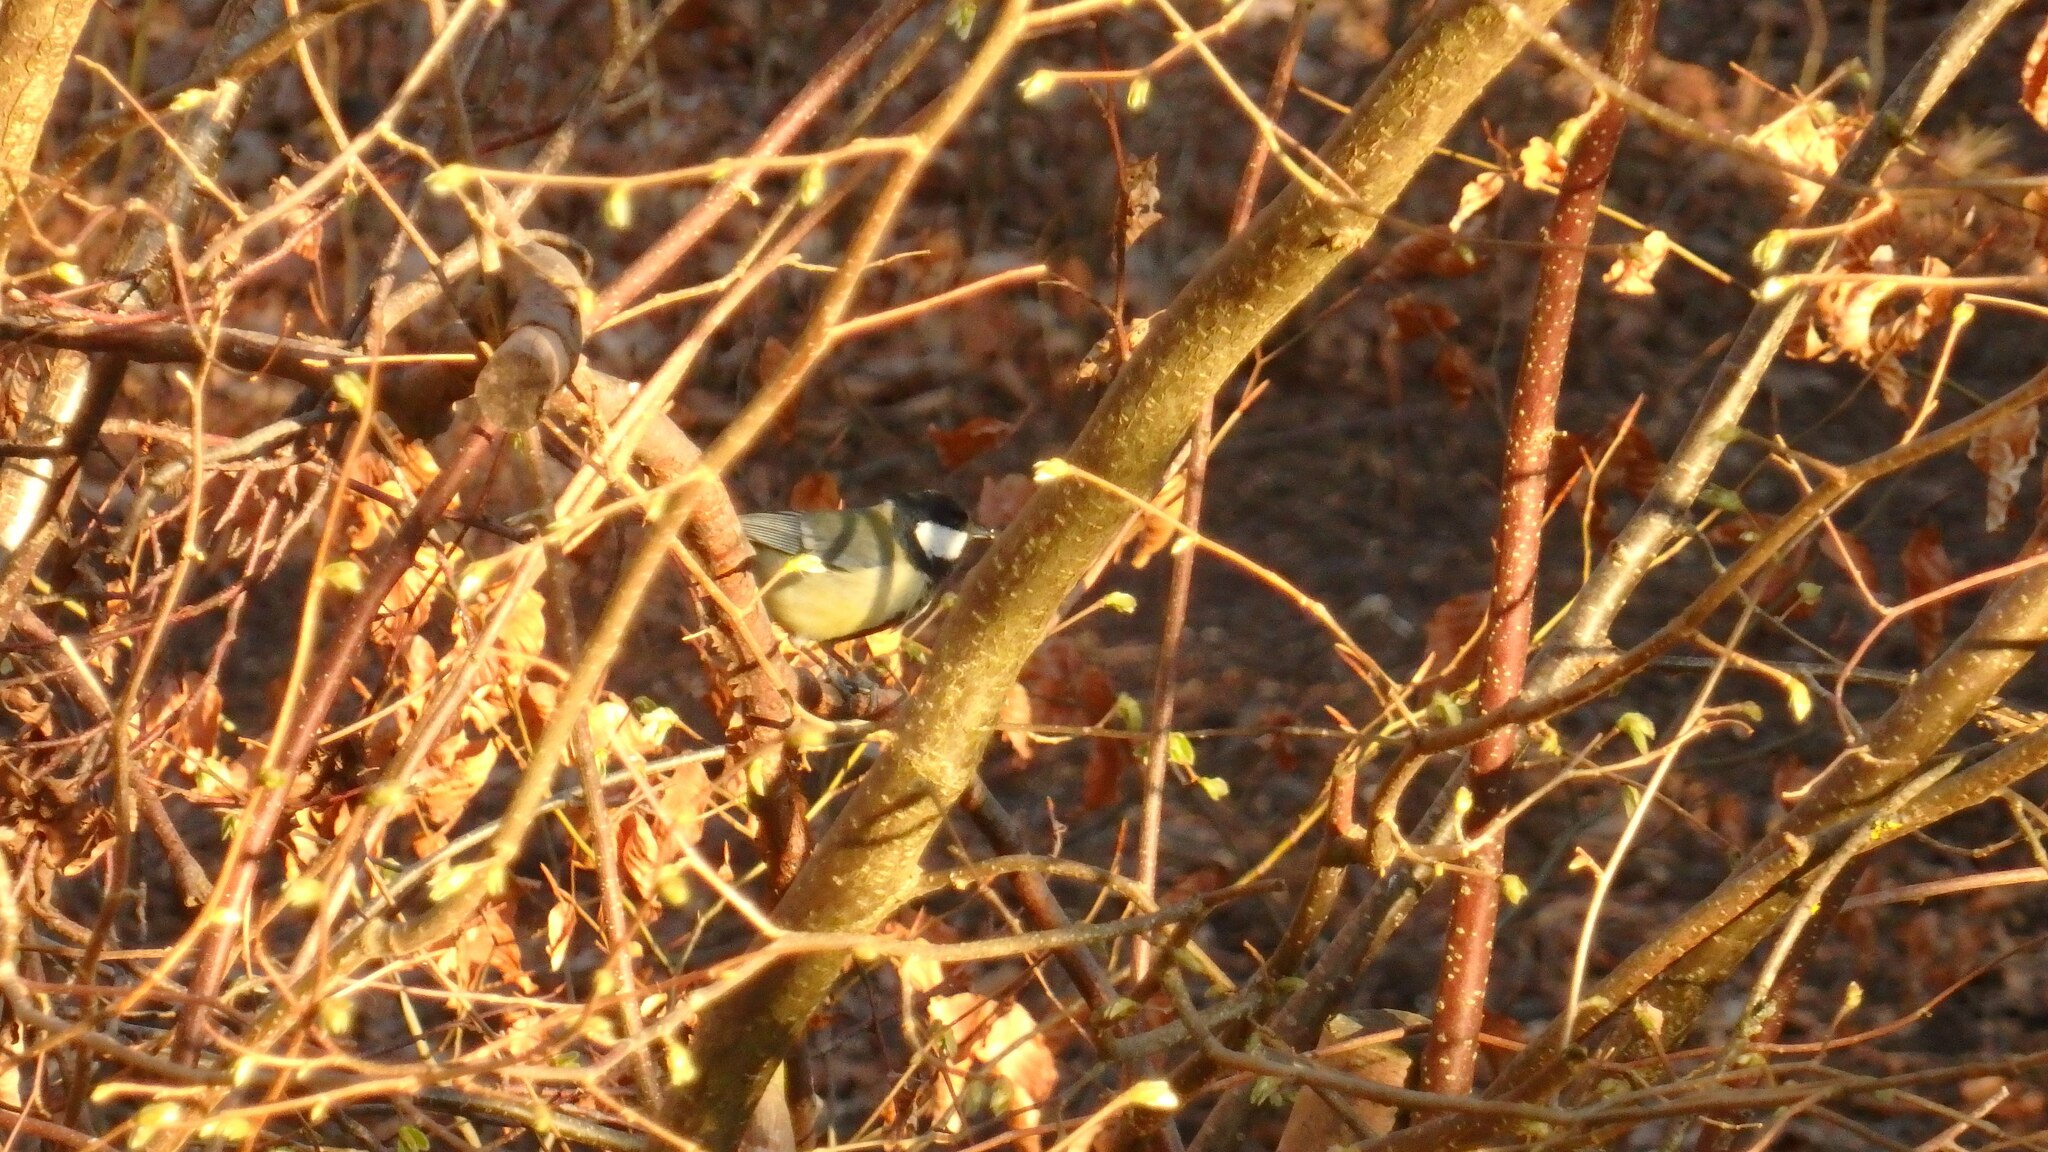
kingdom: Animalia
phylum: Chordata
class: Aves
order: Passeriformes
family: Paridae
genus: Parus
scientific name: Parus major
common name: Great tit
